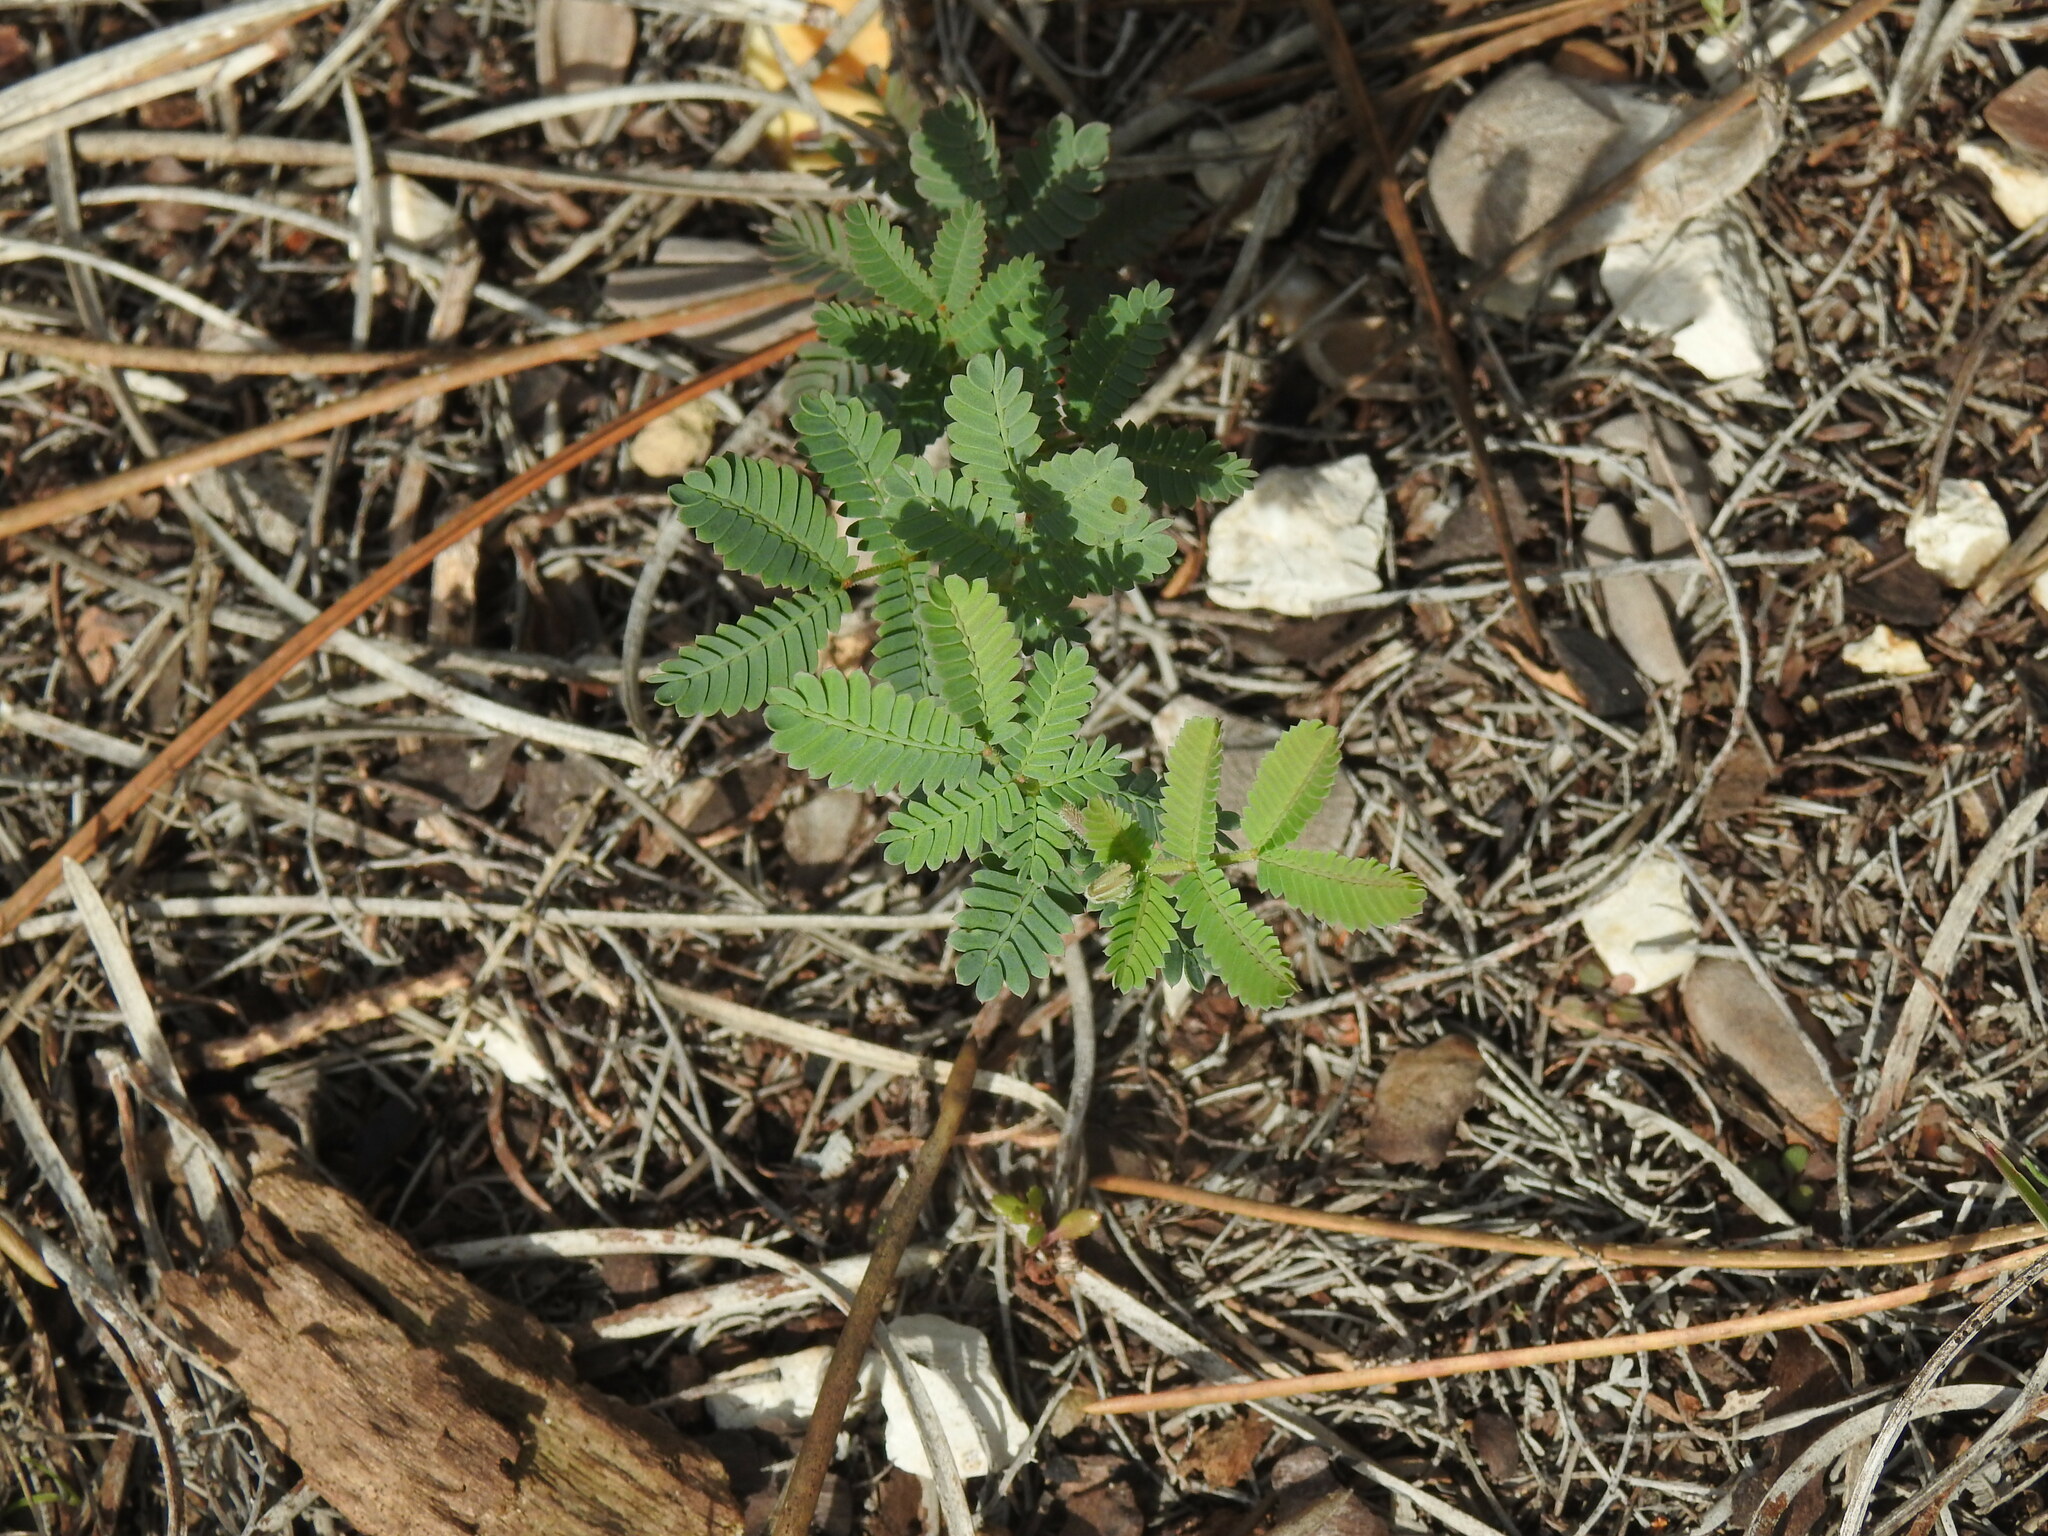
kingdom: Plantae
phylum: Tracheophyta
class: Magnoliopsida
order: Fabales
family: Fabaceae
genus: Acacia
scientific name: Acacia baileyana
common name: Cootamundra wattle
